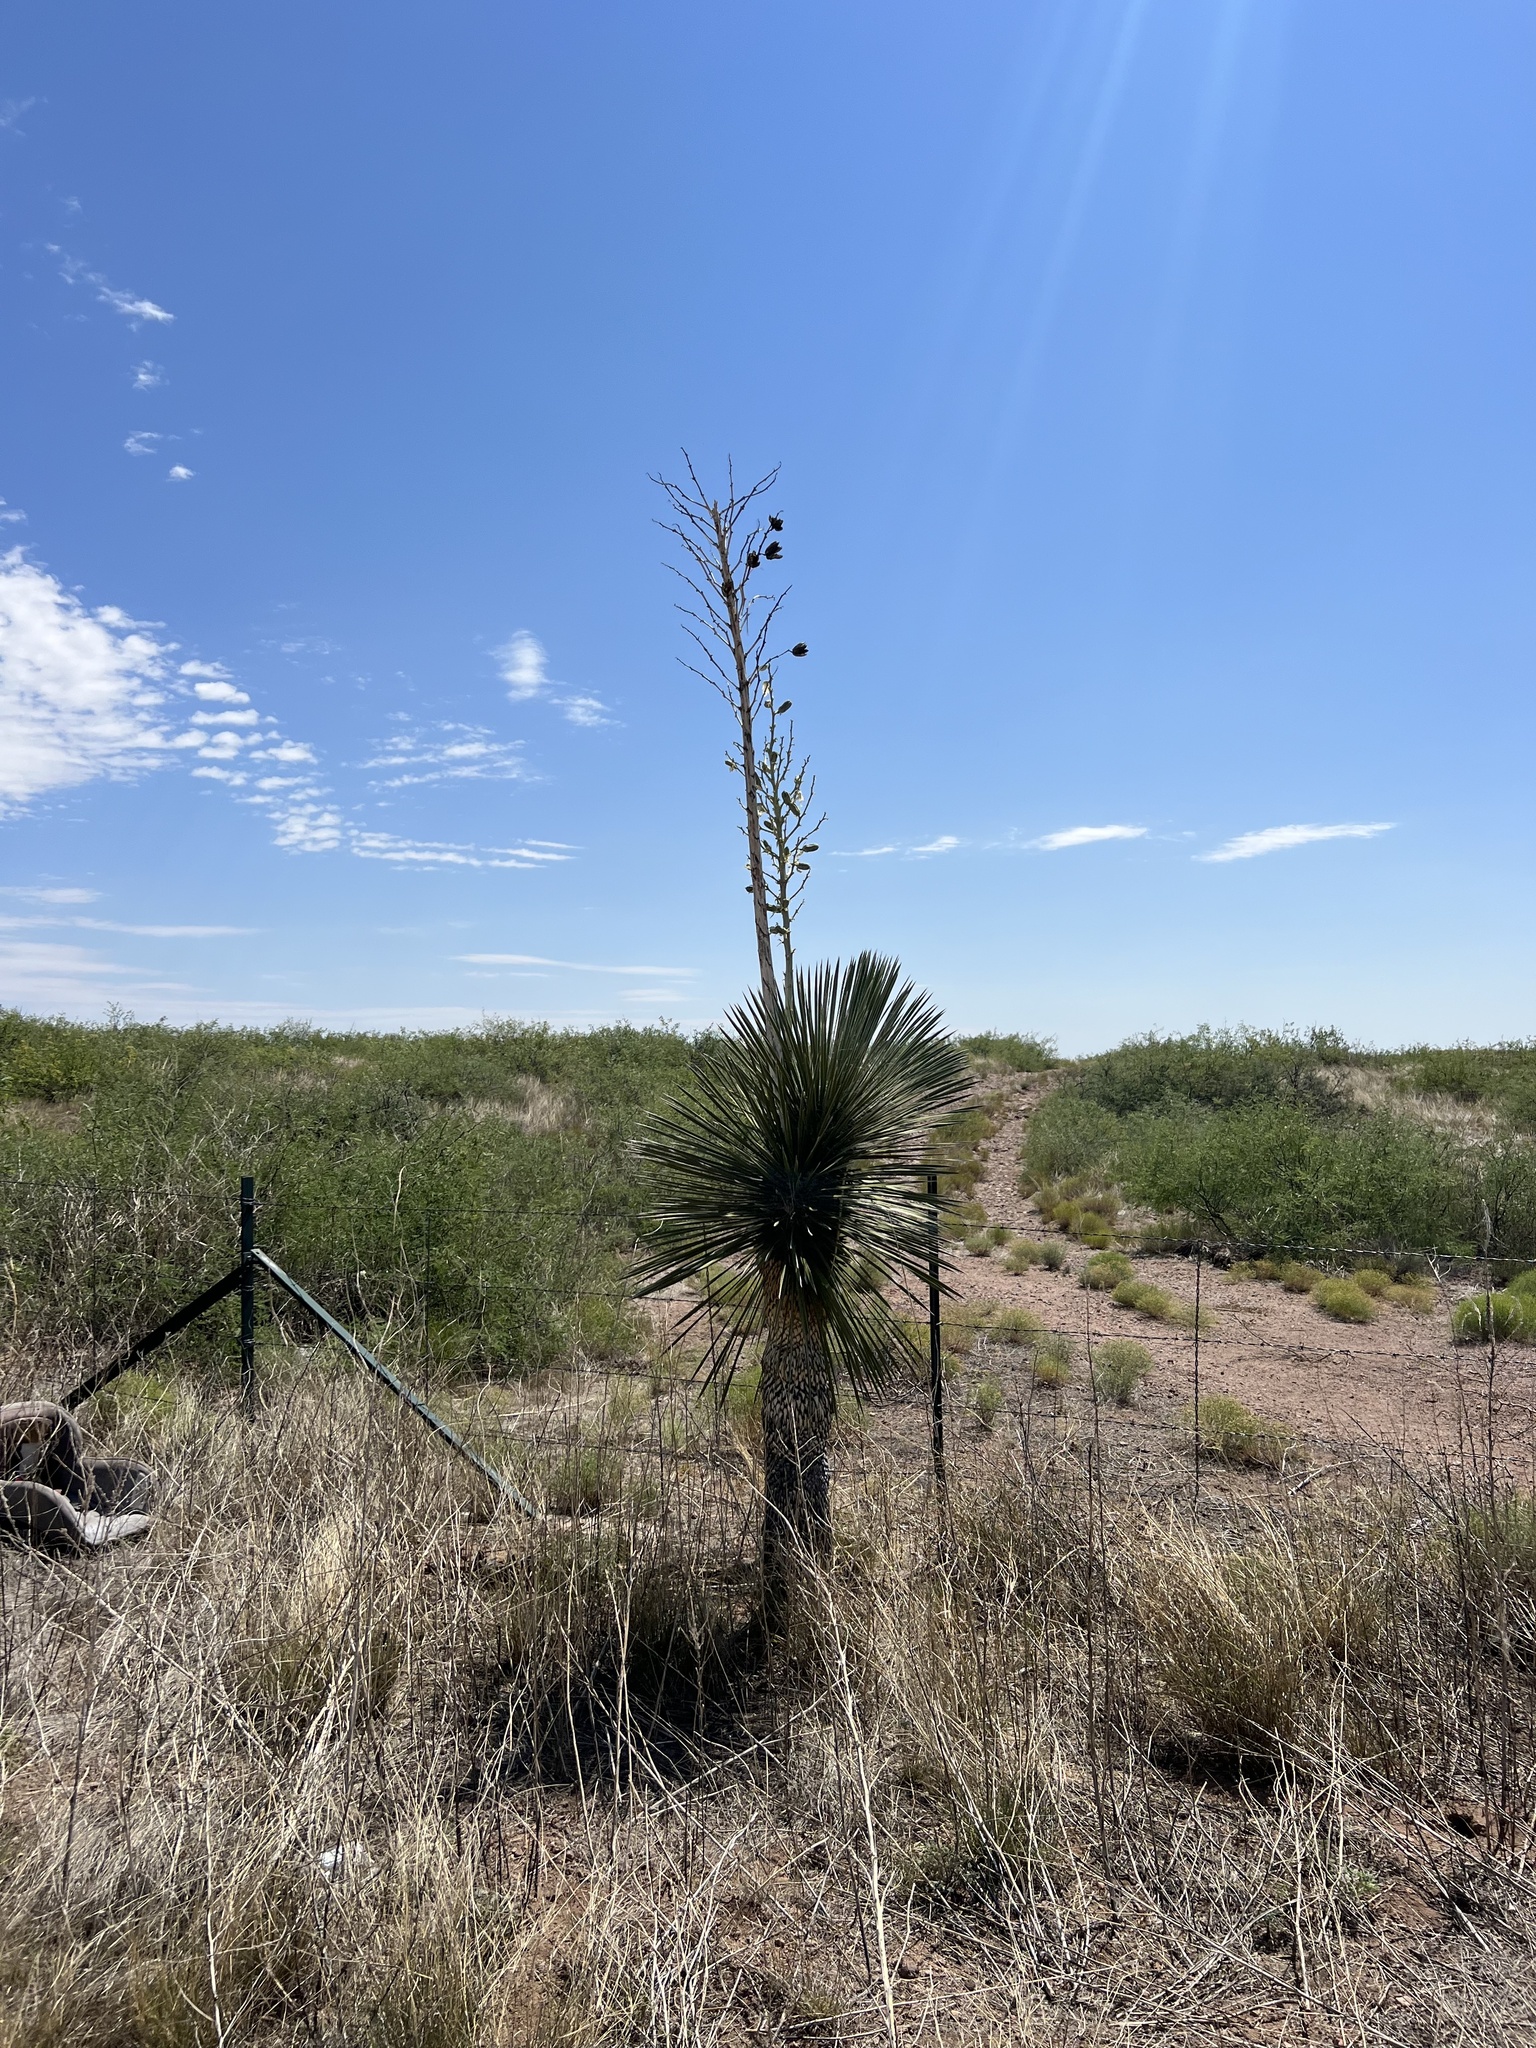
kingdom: Plantae
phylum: Tracheophyta
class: Liliopsida
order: Asparagales
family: Asparagaceae
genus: Yucca
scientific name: Yucca elata
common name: Palmella
